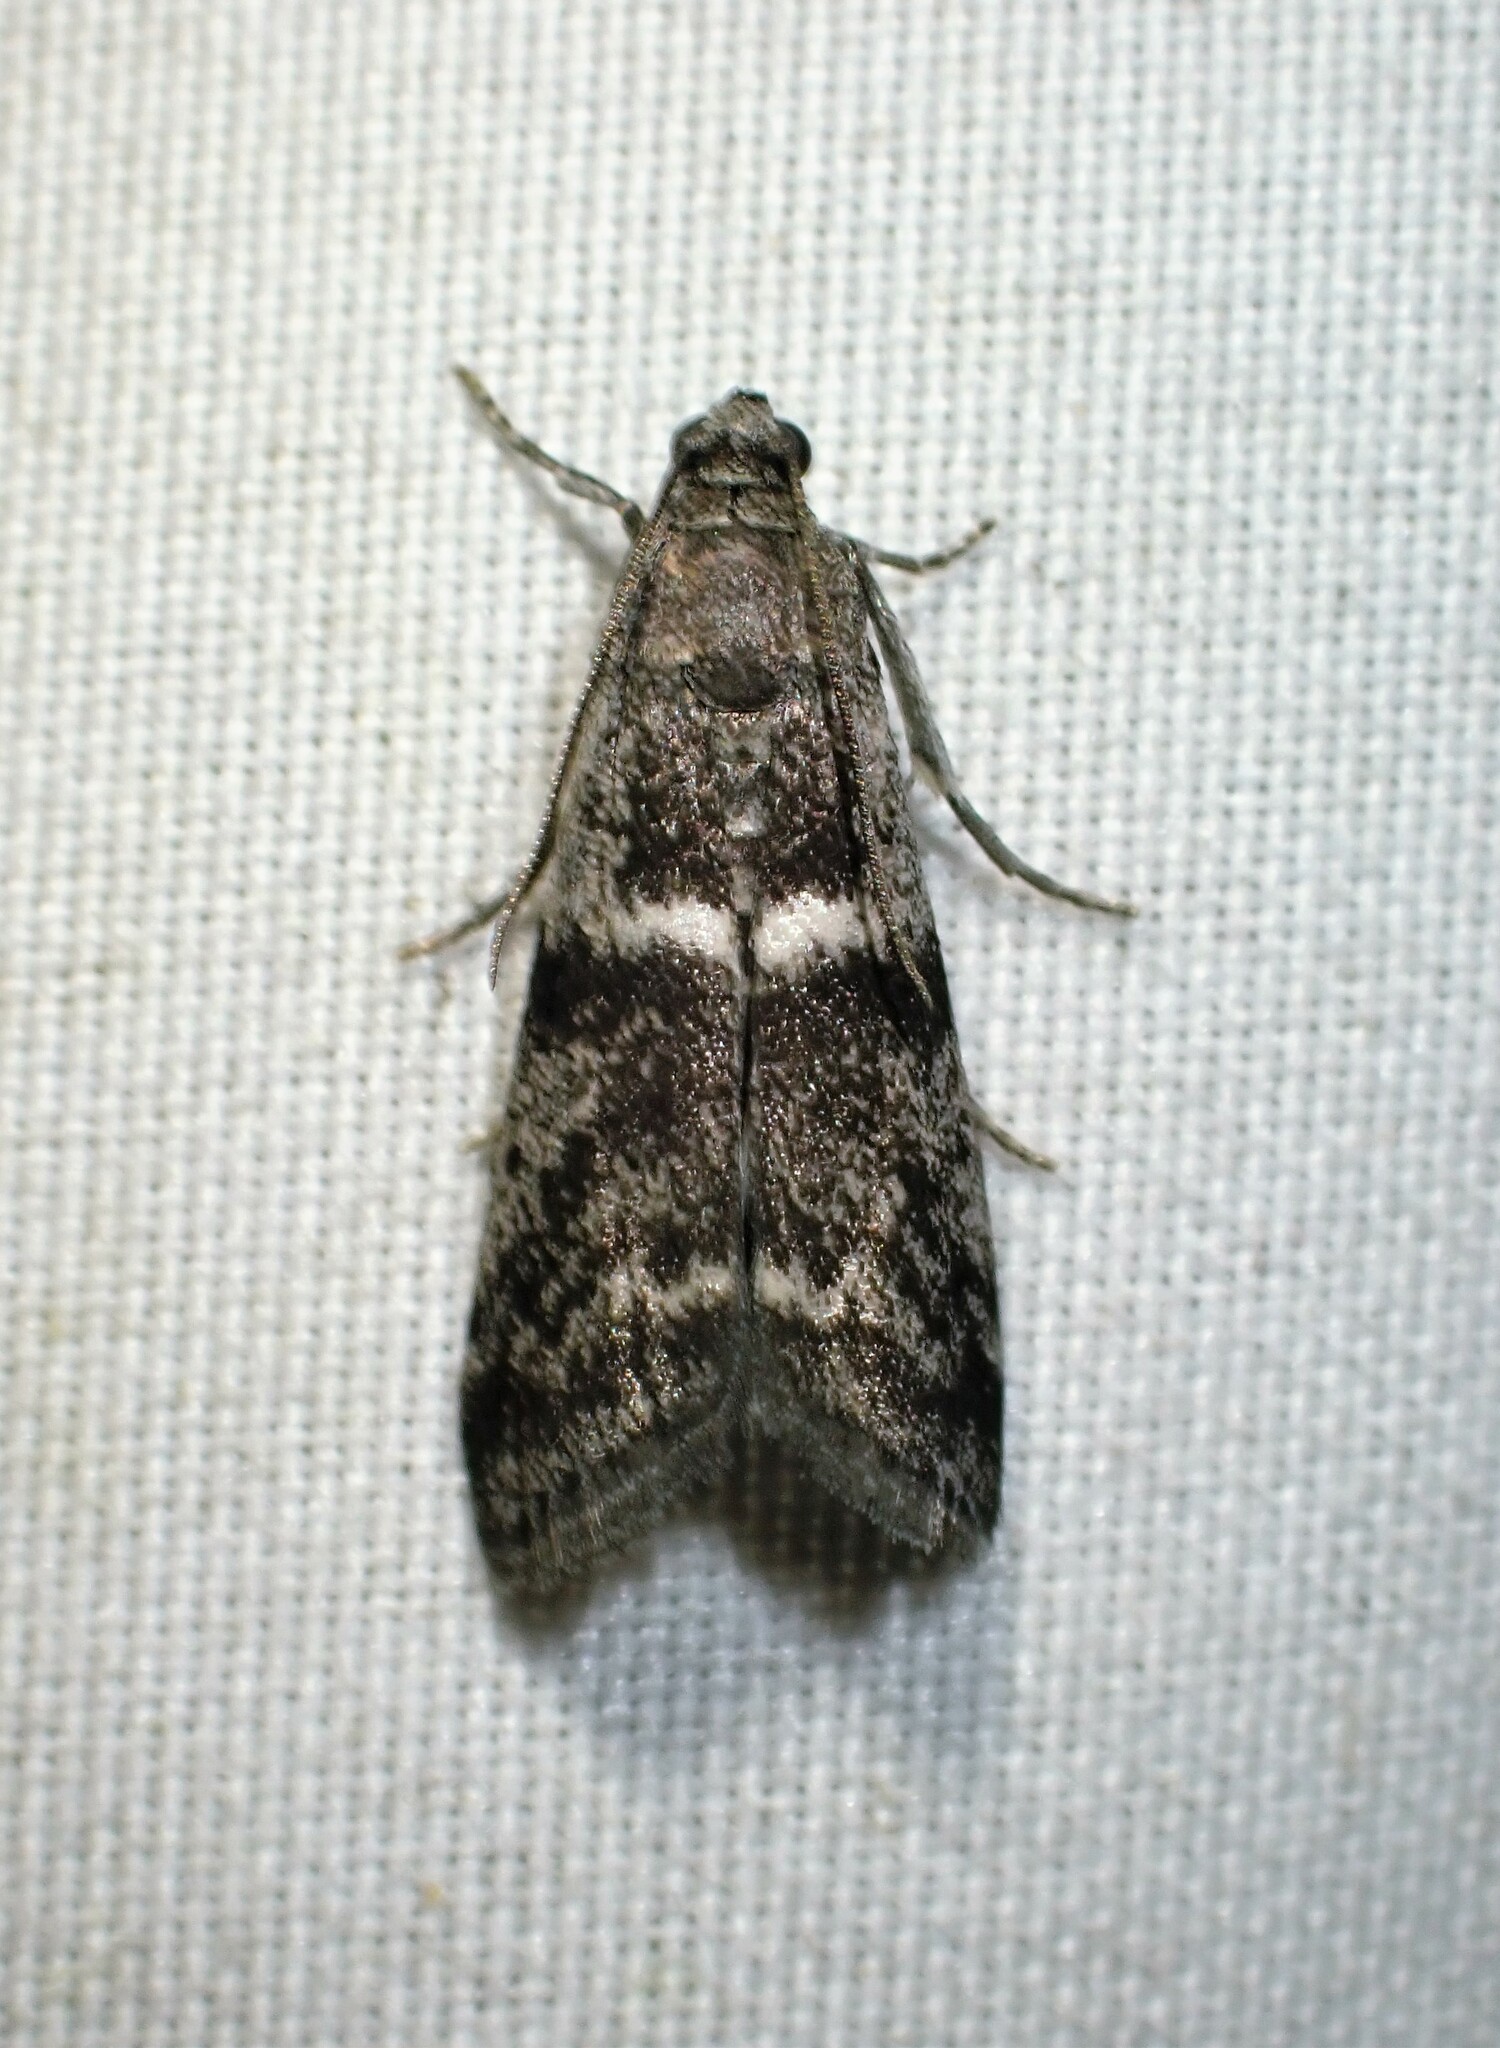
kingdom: Animalia
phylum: Arthropoda
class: Insecta
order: Lepidoptera
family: Pyralidae
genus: Apomyelois
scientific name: Apomyelois bistriatella
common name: Heath knot-horn
